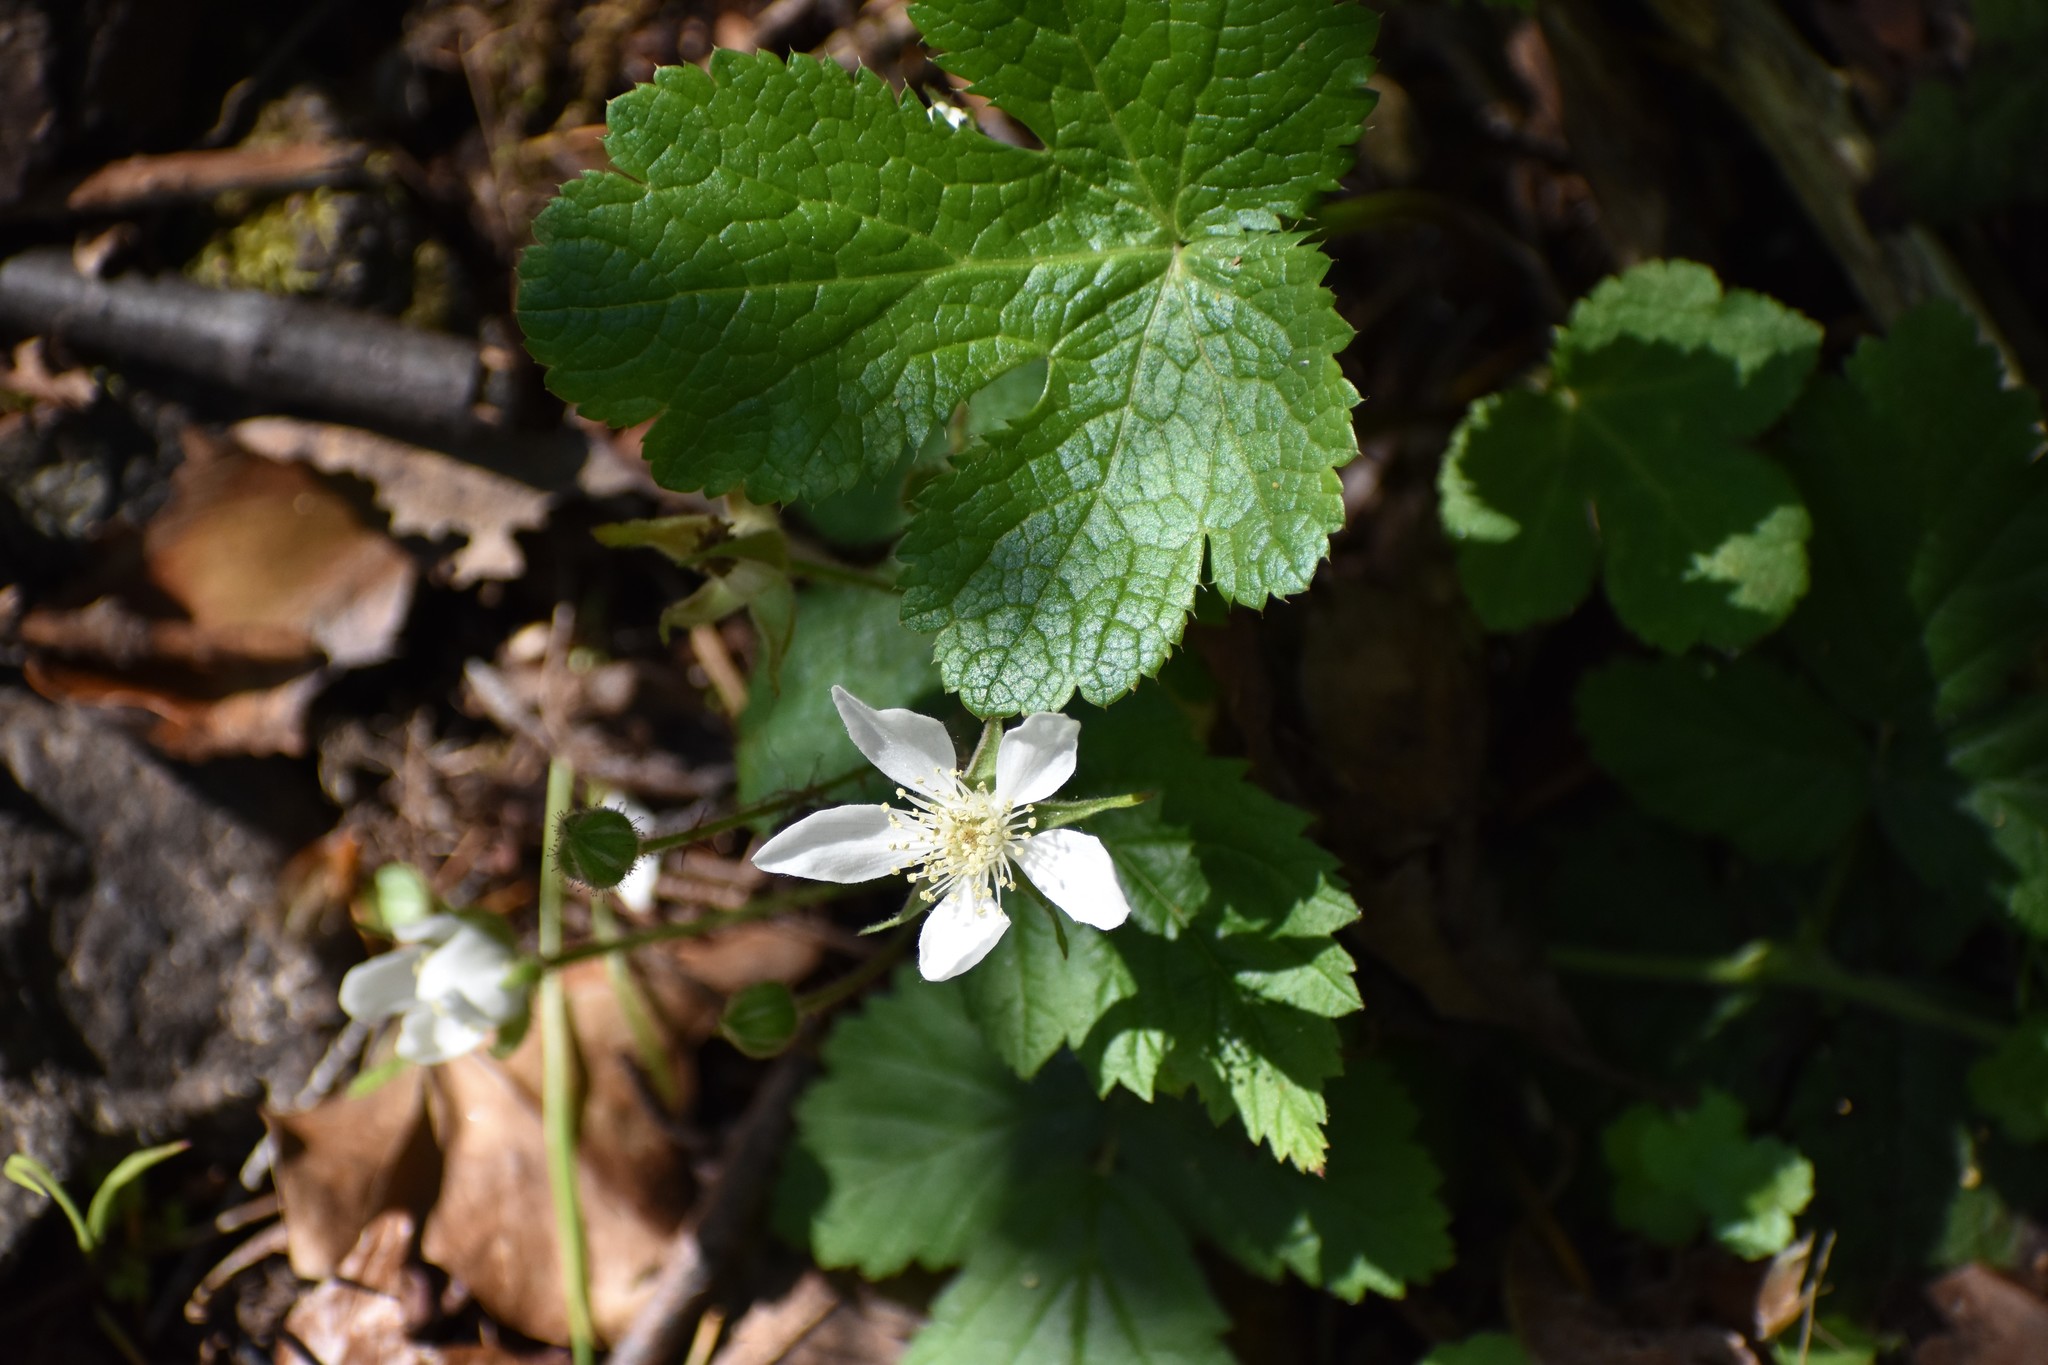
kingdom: Plantae
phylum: Tracheophyta
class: Magnoliopsida
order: Rosales
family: Rosaceae
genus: Rubus
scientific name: Rubus ursinus
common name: Pacific blackberry
